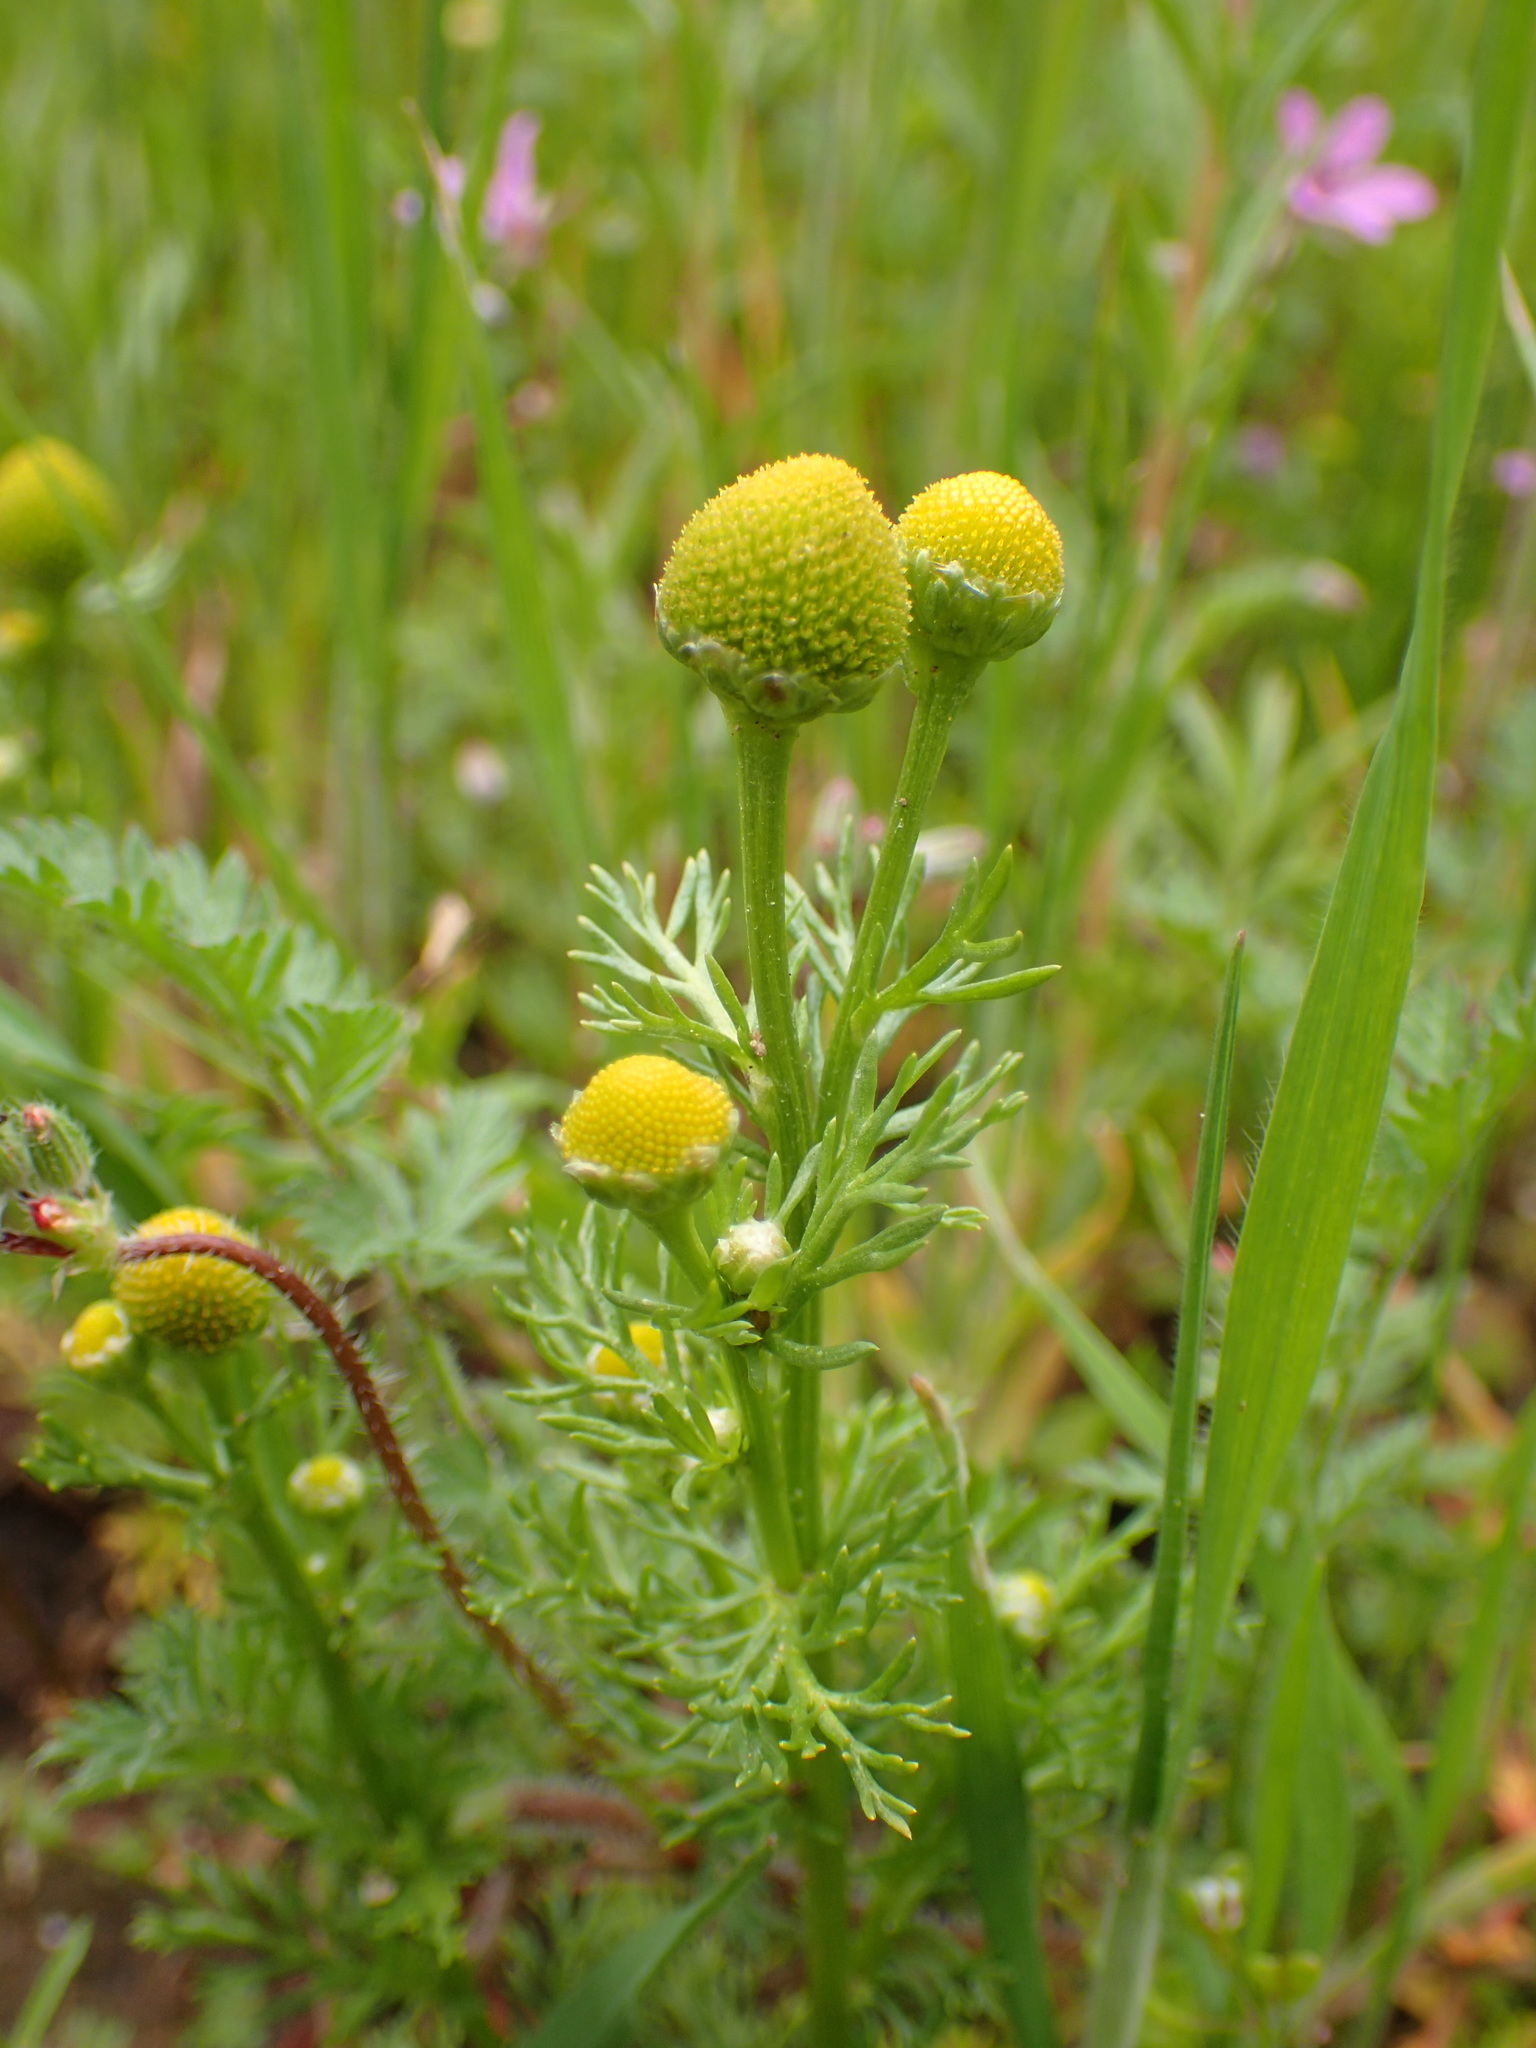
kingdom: Plantae
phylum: Tracheophyta
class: Magnoliopsida
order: Asterales
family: Asteraceae
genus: Matricaria
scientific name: Matricaria discoidea
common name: Disc mayweed
